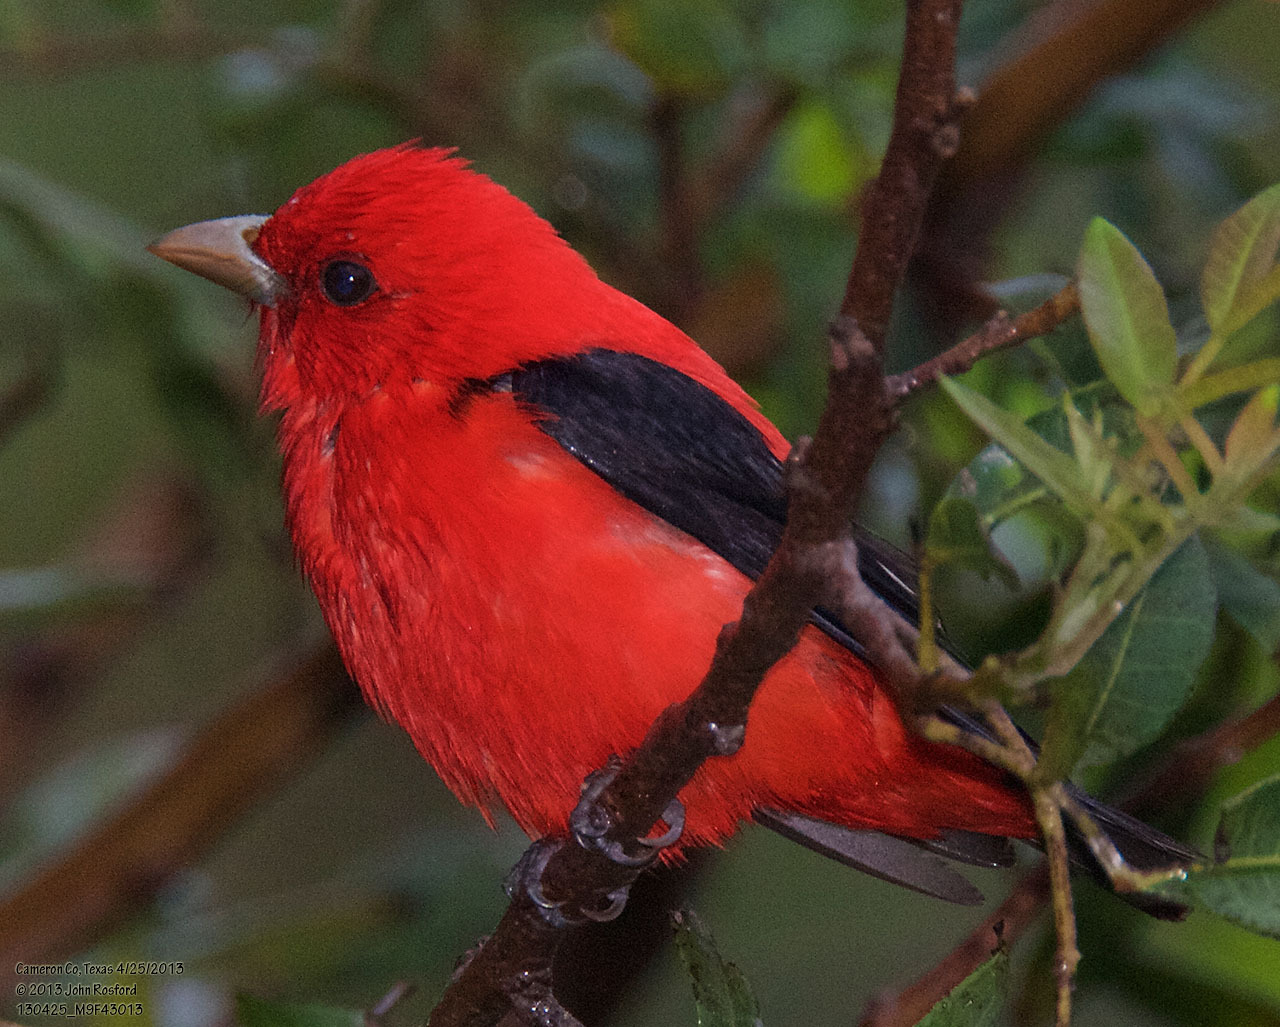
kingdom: Animalia
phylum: Chordata
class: Aves
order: Passeriformes
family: Cardinalidae
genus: Piranga
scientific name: Piranga olivacea
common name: Scarlet tanager
